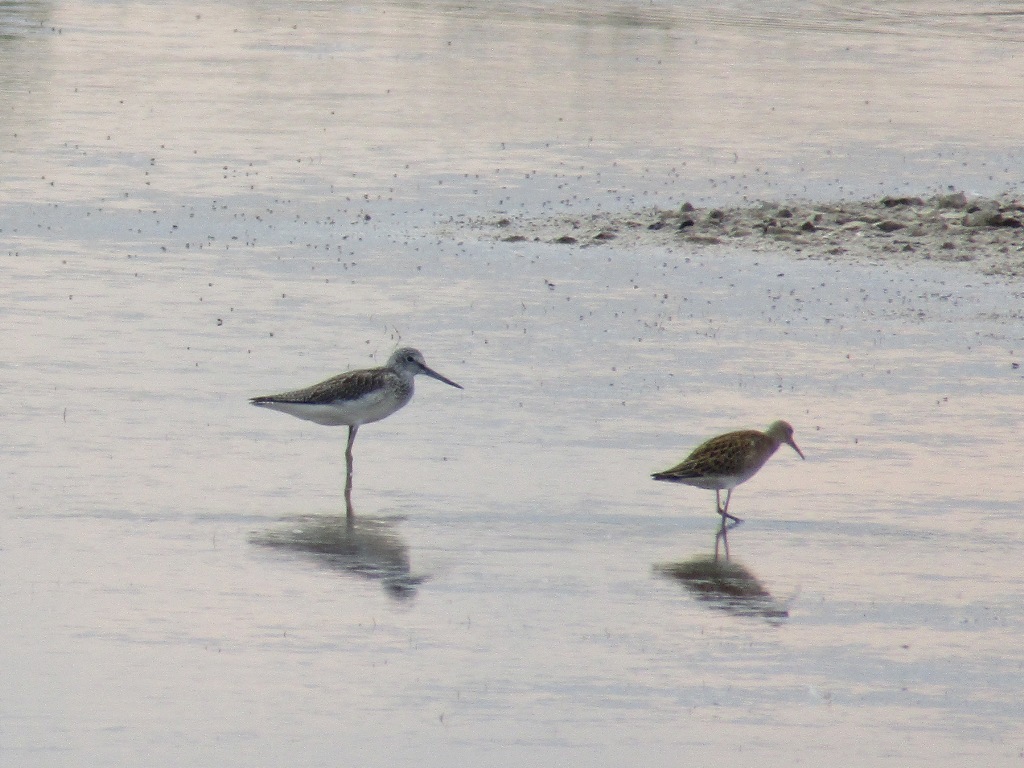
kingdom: Animalia
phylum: Chordata
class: Aves
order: Charadriiformes
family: Scolopacidae
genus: Tringa
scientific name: Tringa nebularia
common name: Common greenshank
